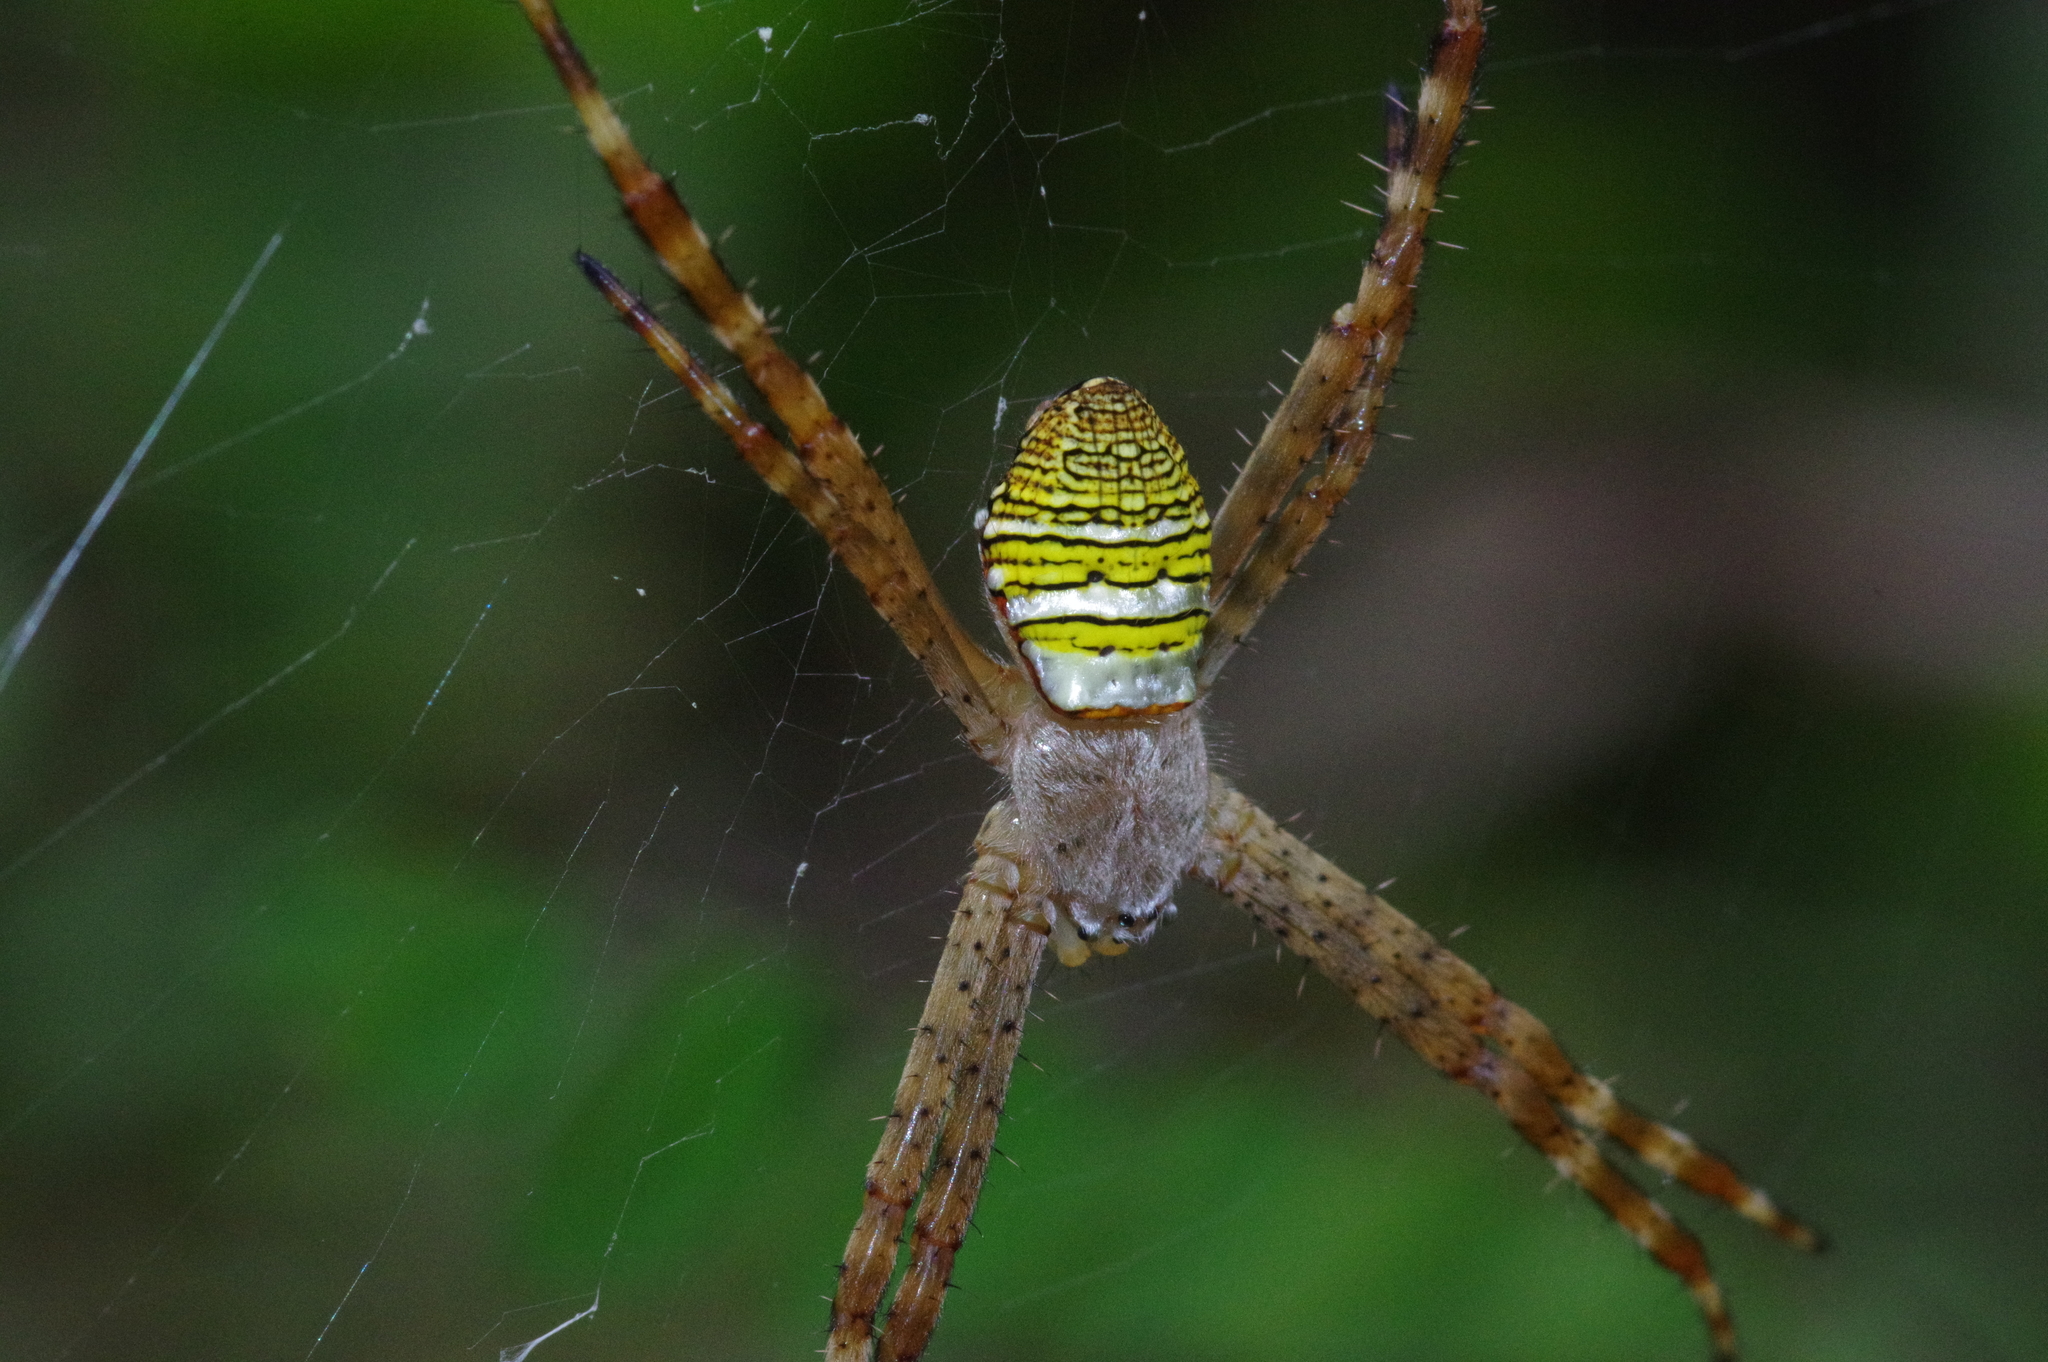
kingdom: Animalia
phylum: Arthropoda
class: Arachnida
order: Araneae
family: Araneidae
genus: Argiope
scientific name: Argiope aemula
